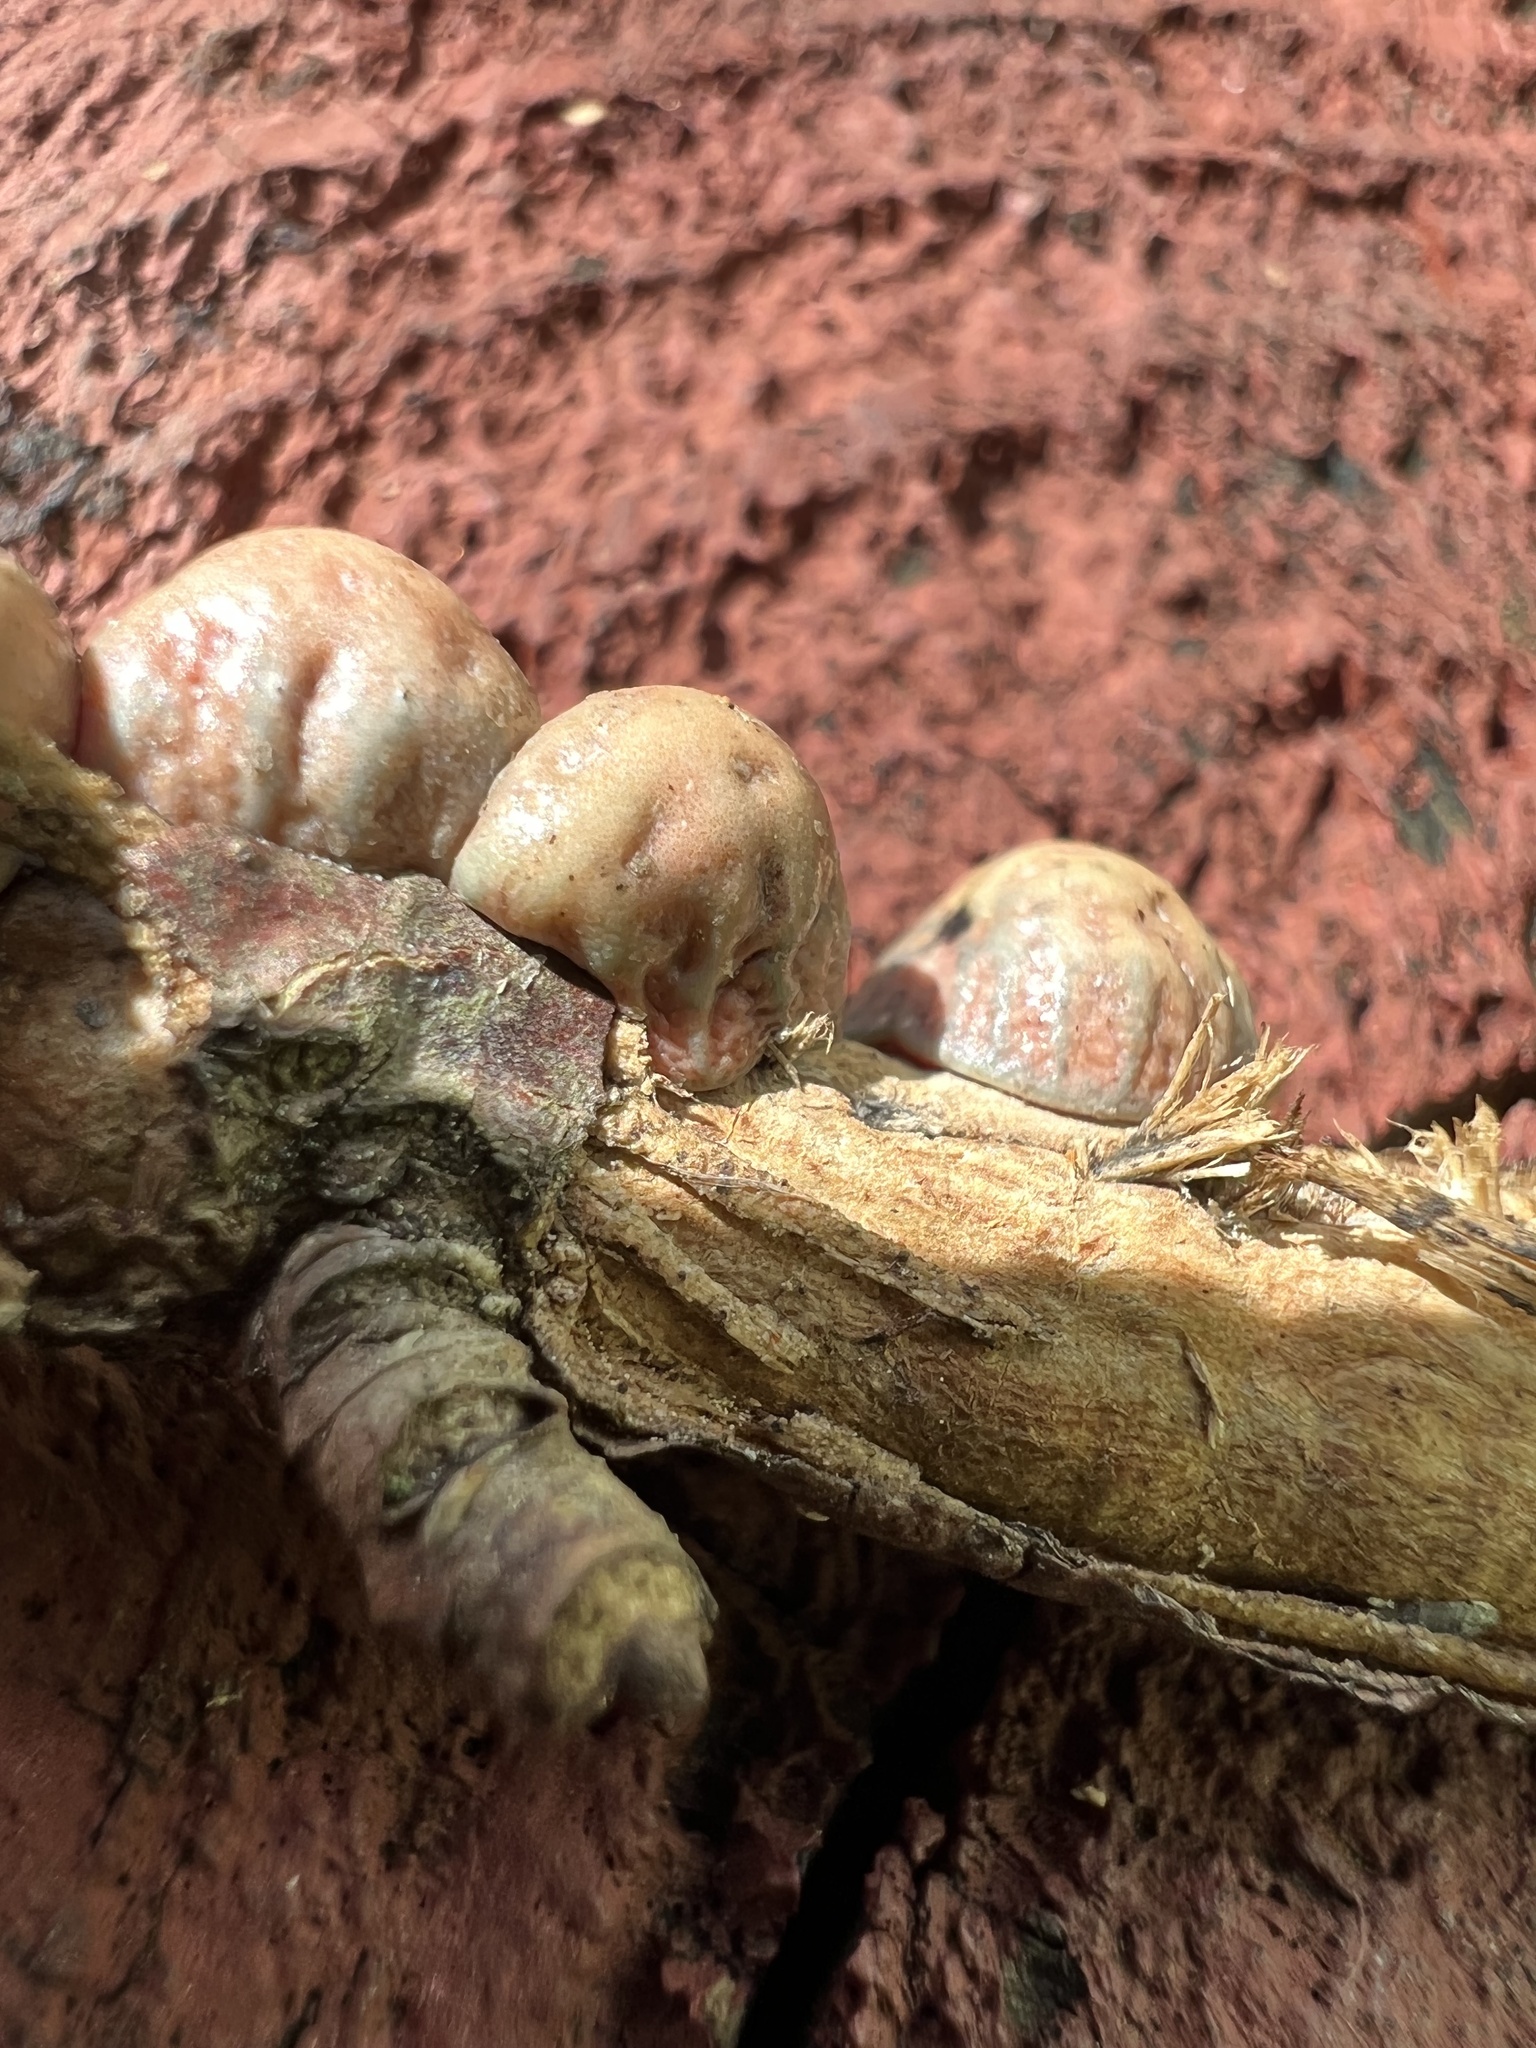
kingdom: Animalia
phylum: Arthropoda
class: Insecta
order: Hemiptera
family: Coccidae
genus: Toumeyella
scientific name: Toumeyella liriodendri
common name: Tuliptree scale
